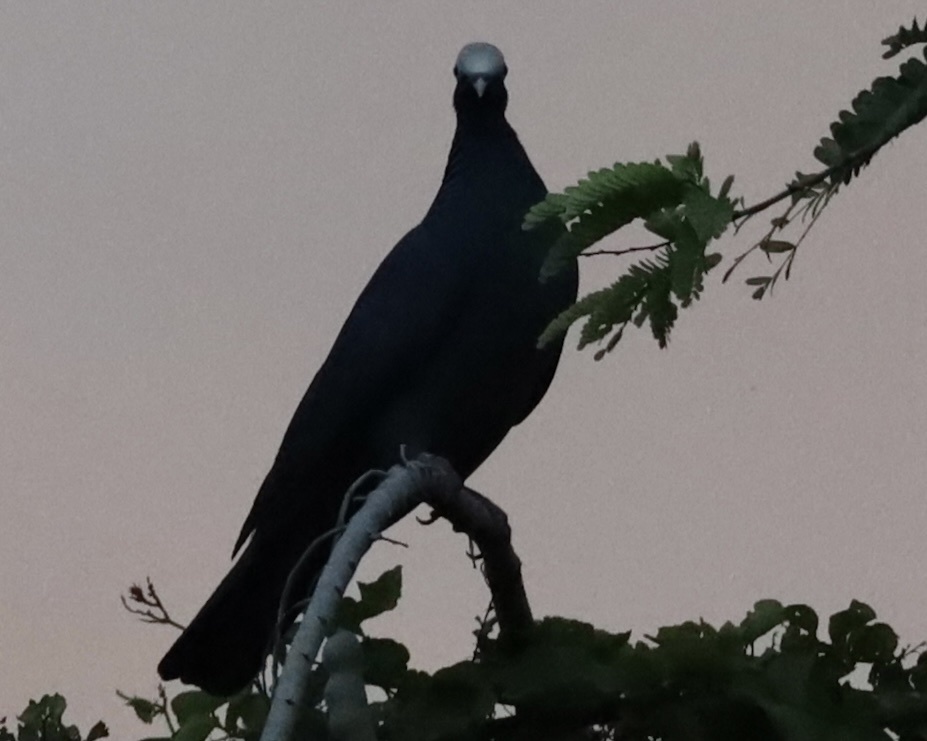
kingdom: Animalia
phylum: Chordata
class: Aves
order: Columbiformes
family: Columbidae
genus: Patagioenas
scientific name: Patagioenas leucocephala
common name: White-crowned pigeon
